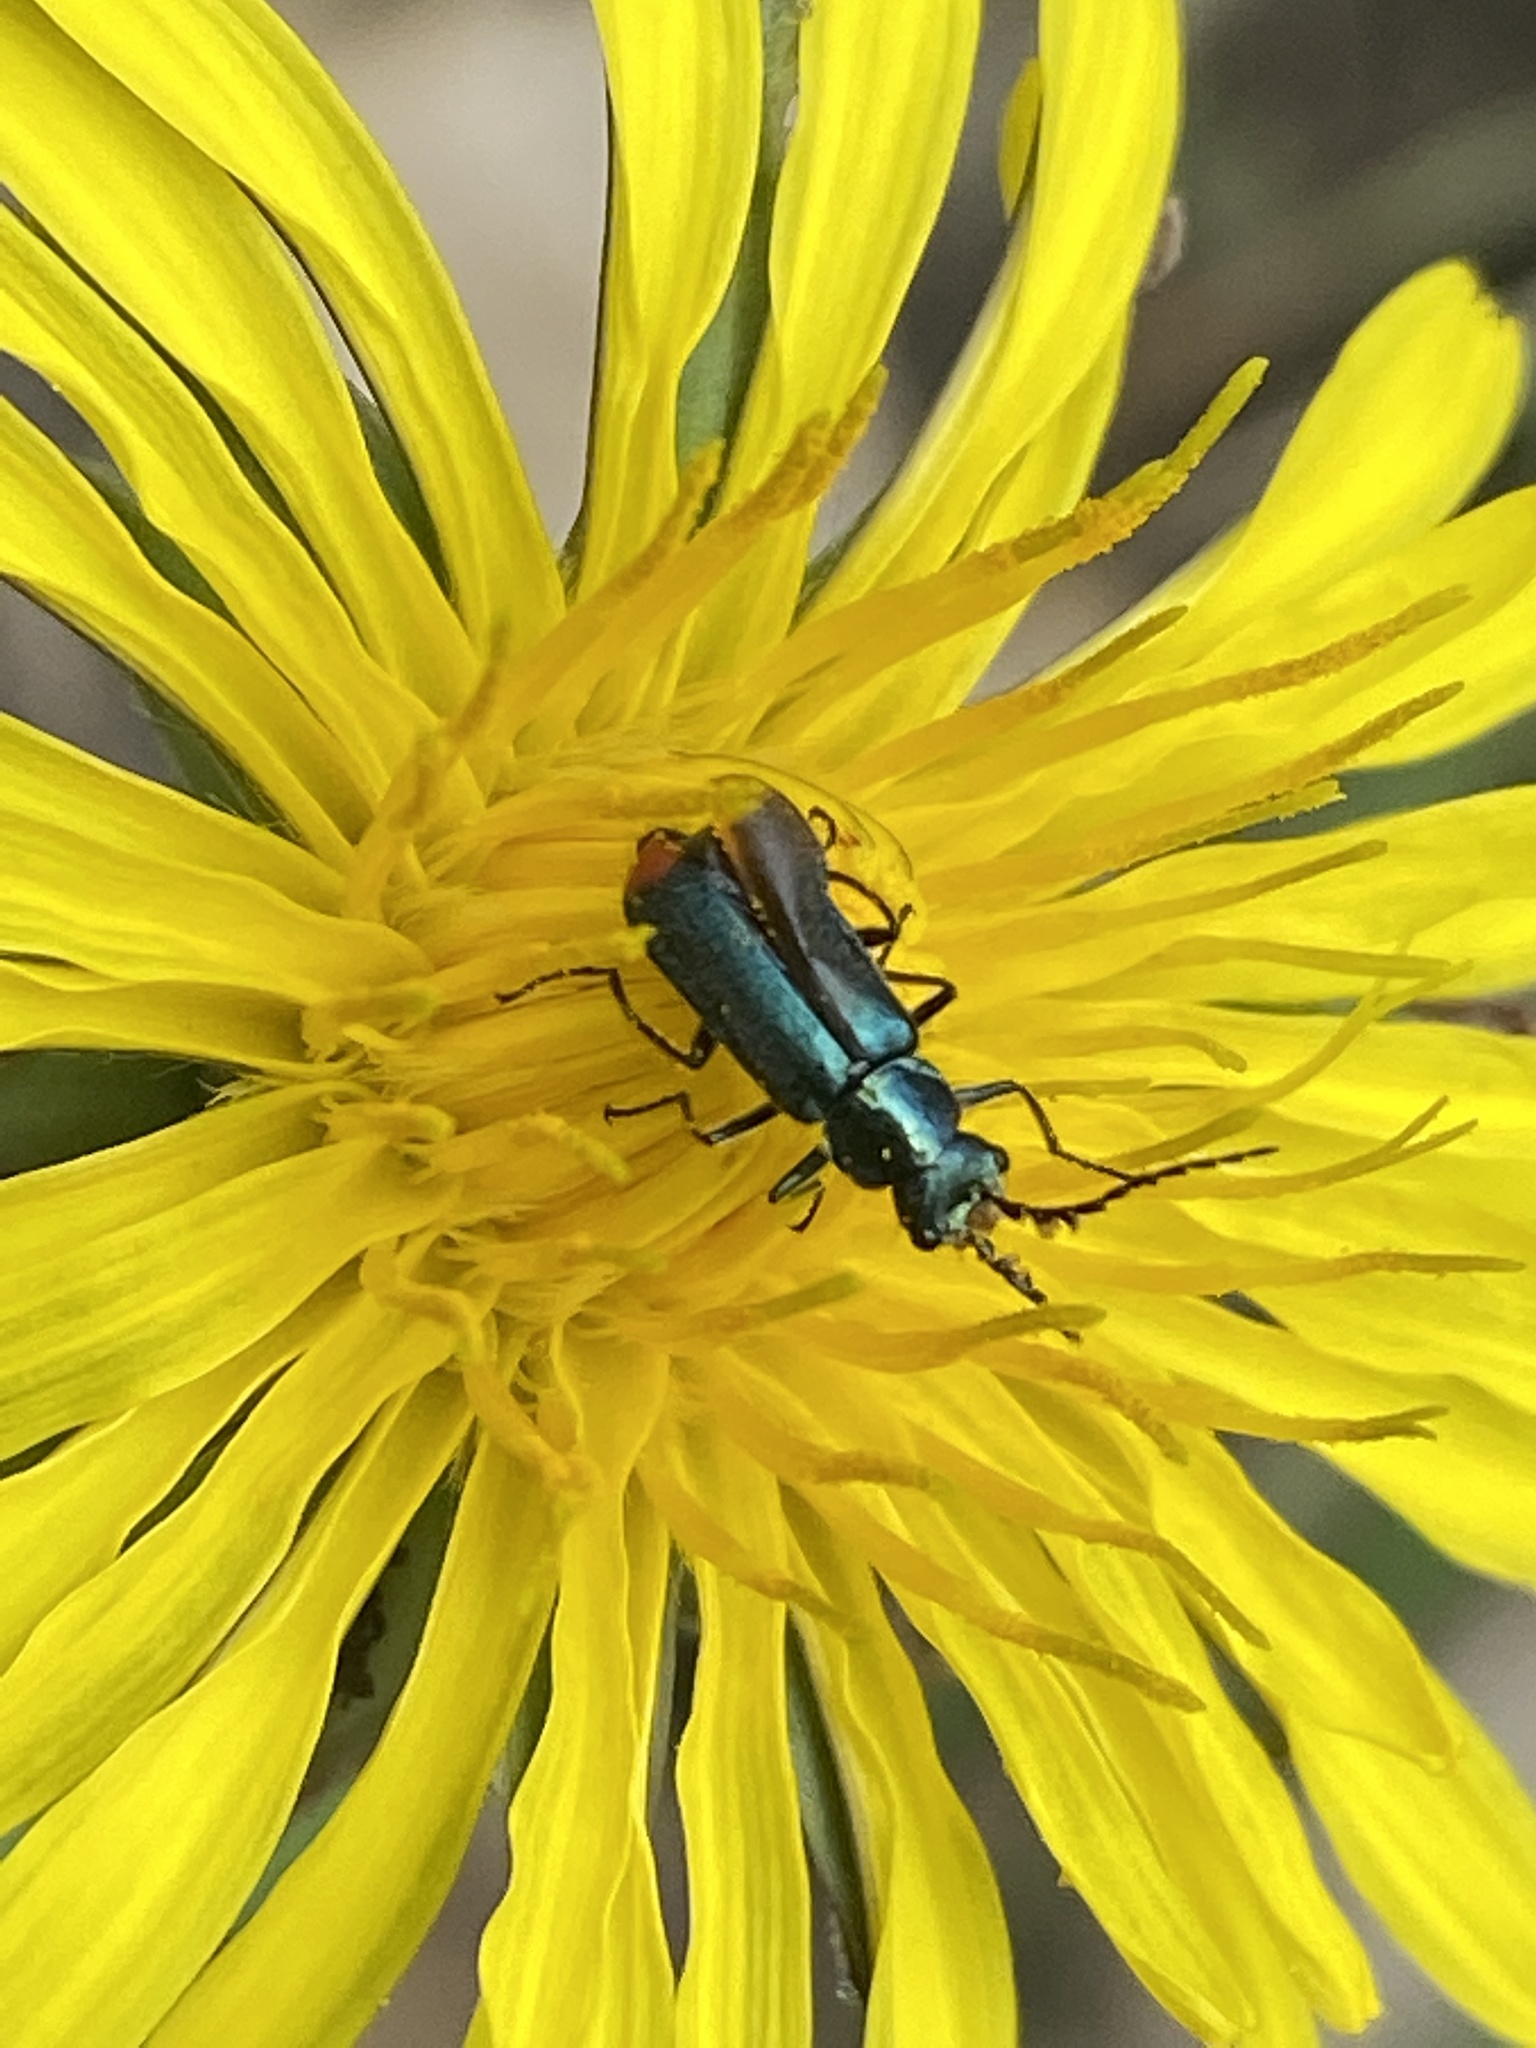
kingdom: Animalia
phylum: Arthropoda
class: Insecta
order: Coleoptera
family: Melyridae
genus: Malachius
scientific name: Malachius bipustulatus
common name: Malachite beetle
